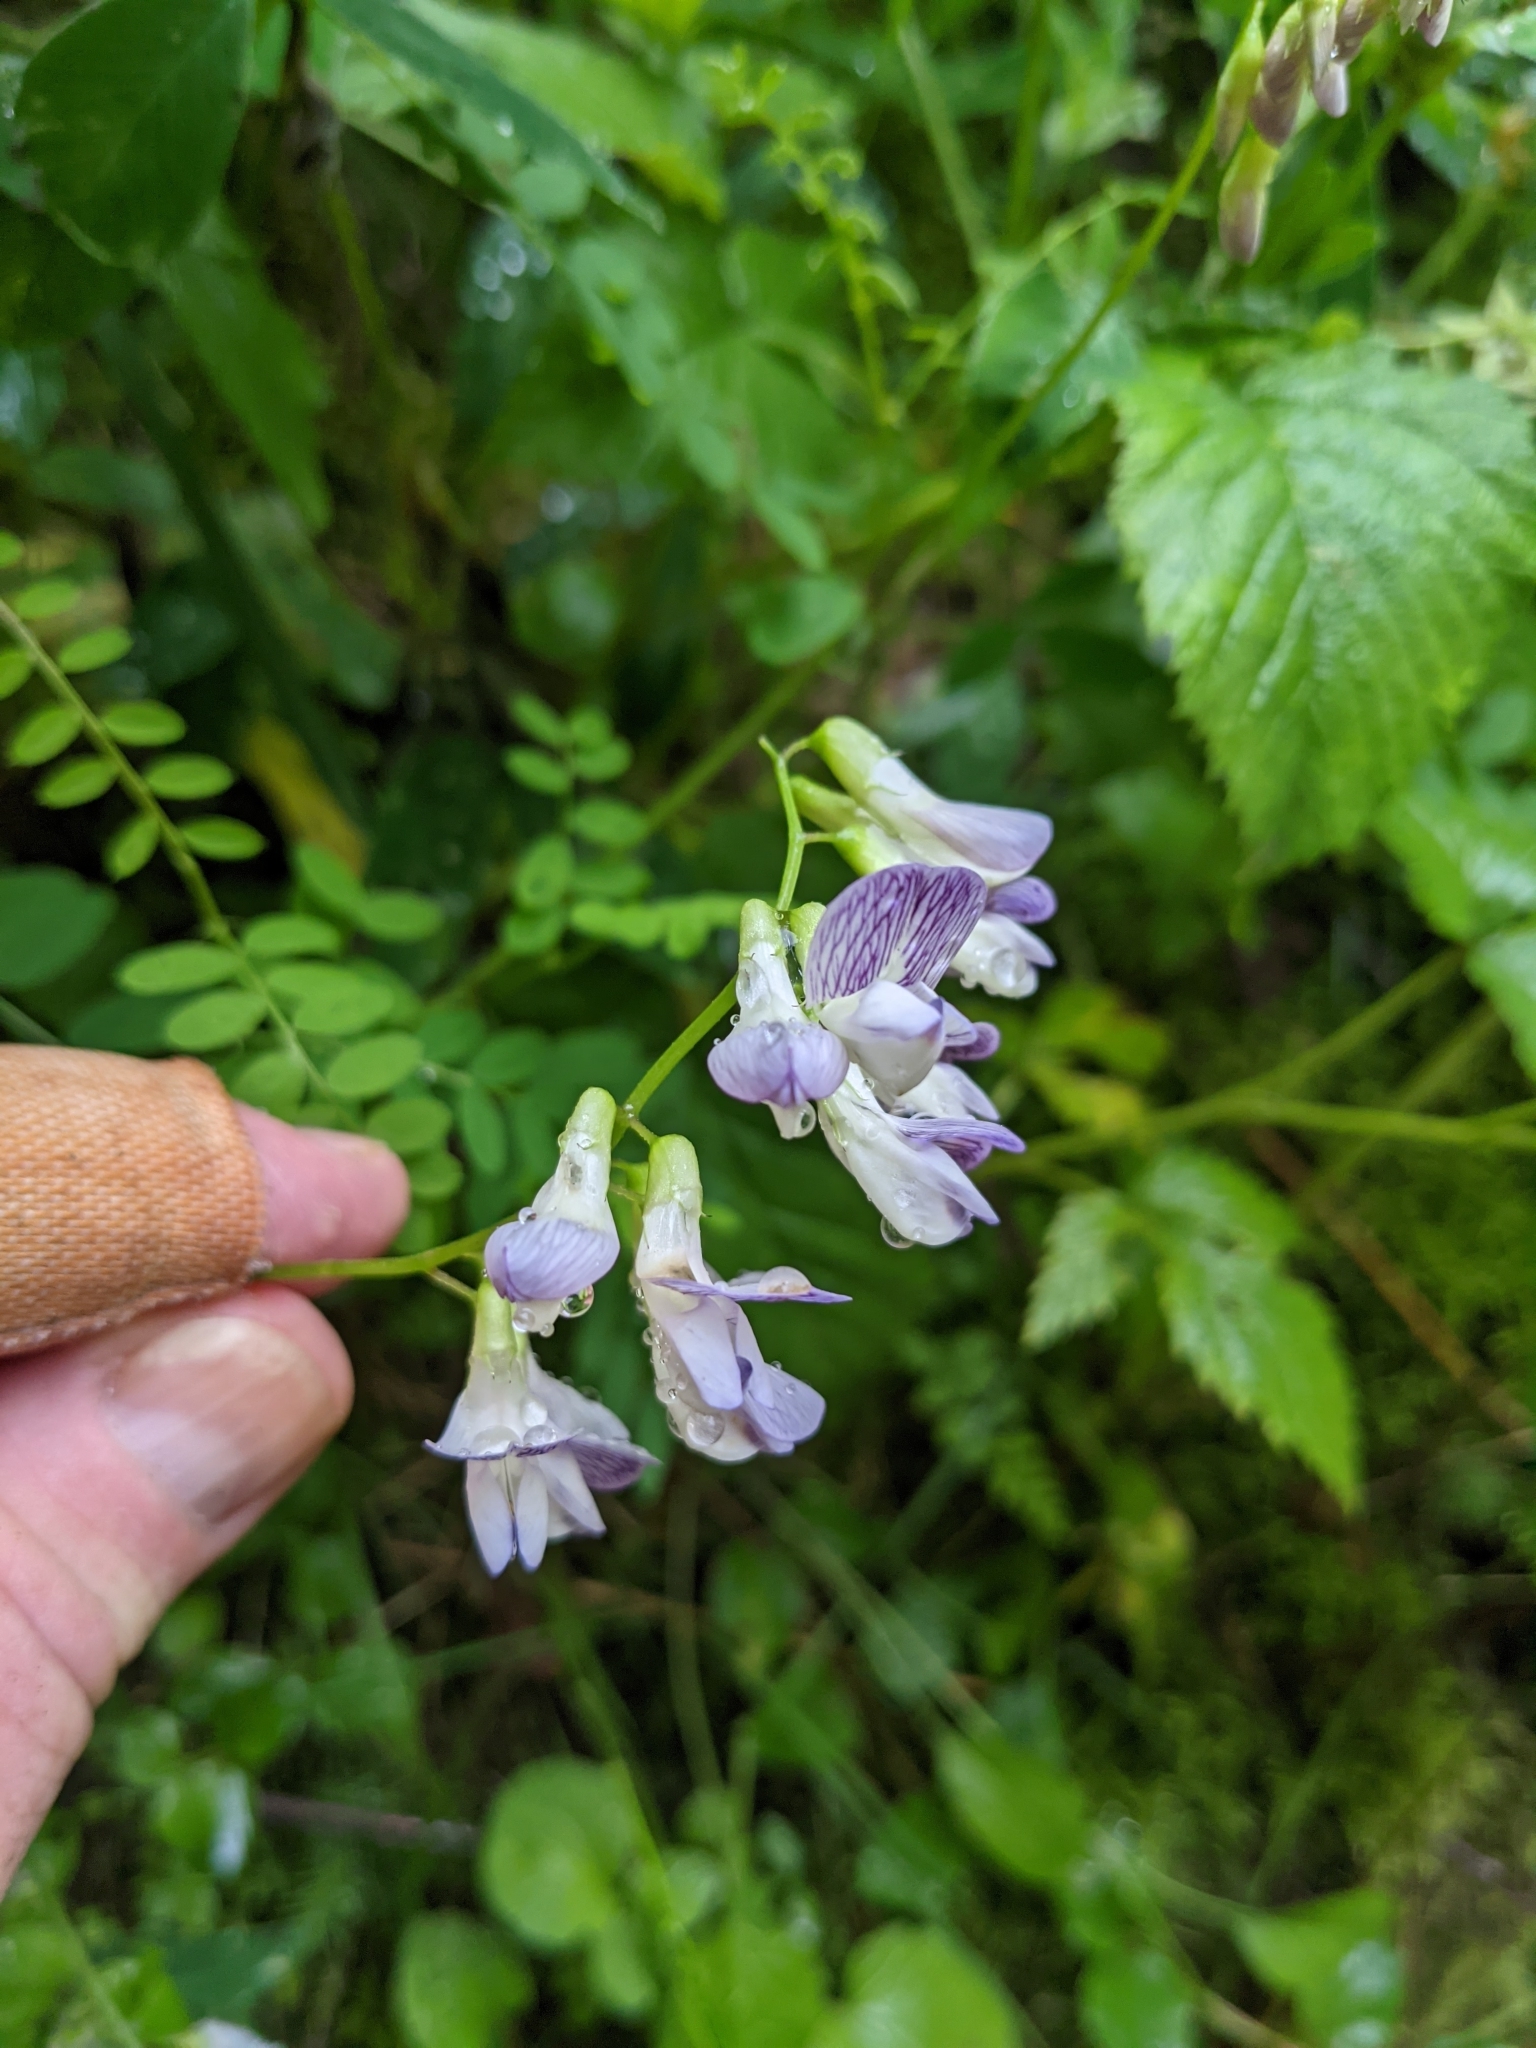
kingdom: Plantae
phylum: Tracheophyta
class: Magnoliopsida
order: Fabales
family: Fabaceae
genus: Vicia
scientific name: Vicia sylvatica
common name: Wood vetch
